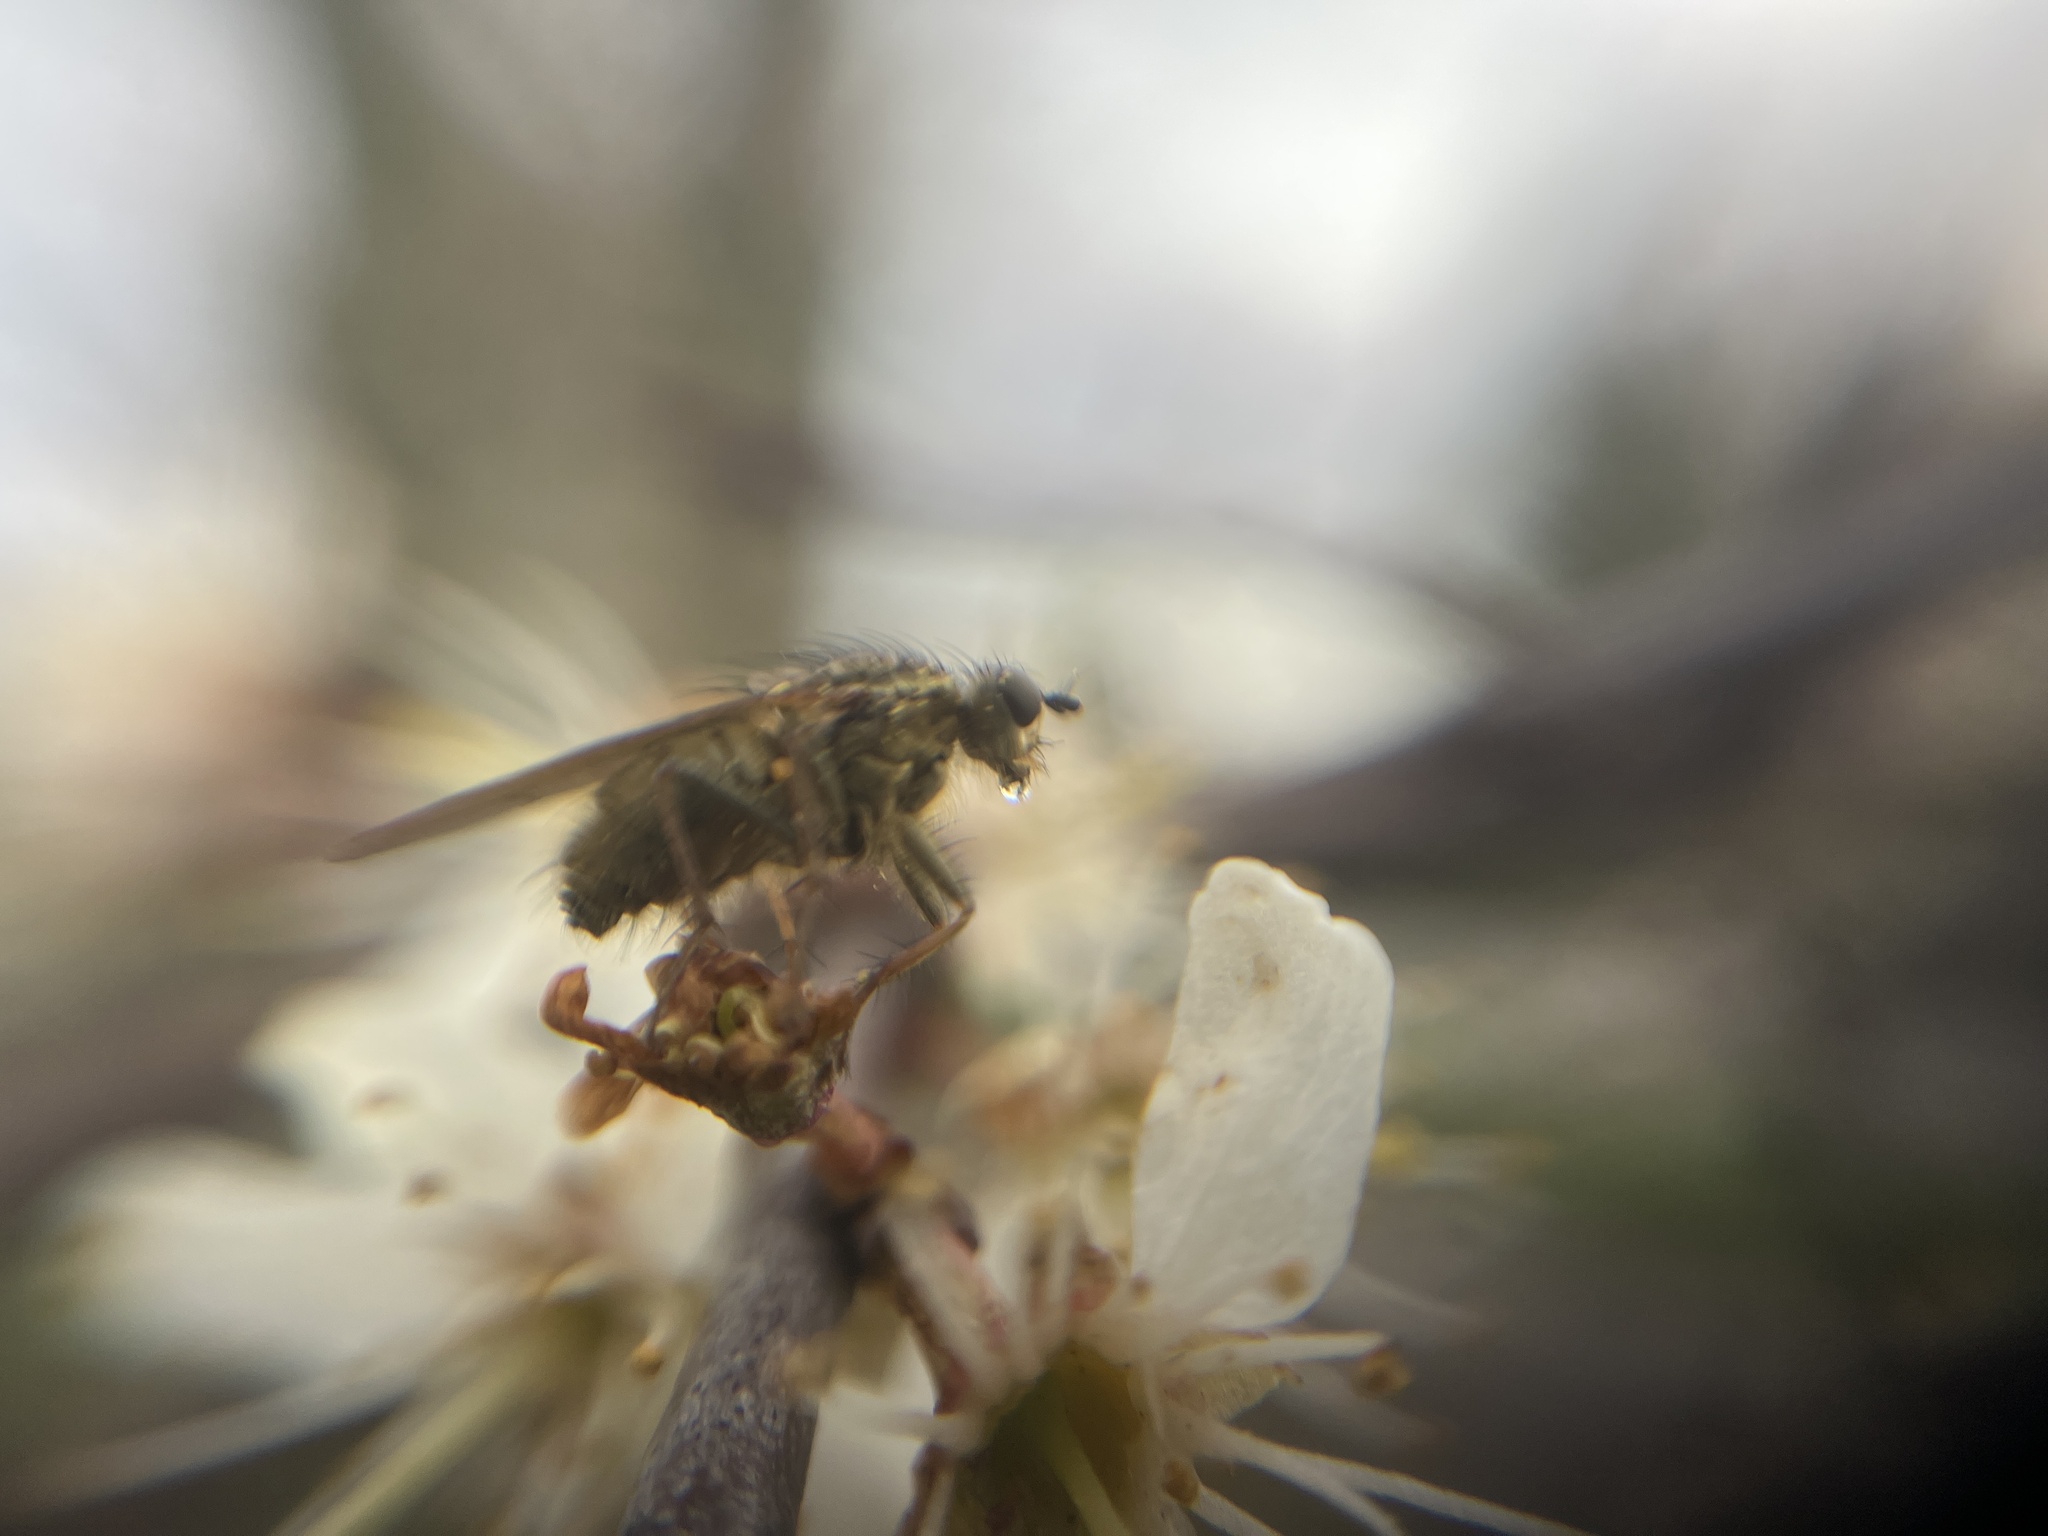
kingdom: Animalia
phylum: Arthropoda
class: Insecta
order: Diptera
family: Scathophagidae
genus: Scathophaga
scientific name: Scathophaga stercoraria
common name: Yellow dung fly
